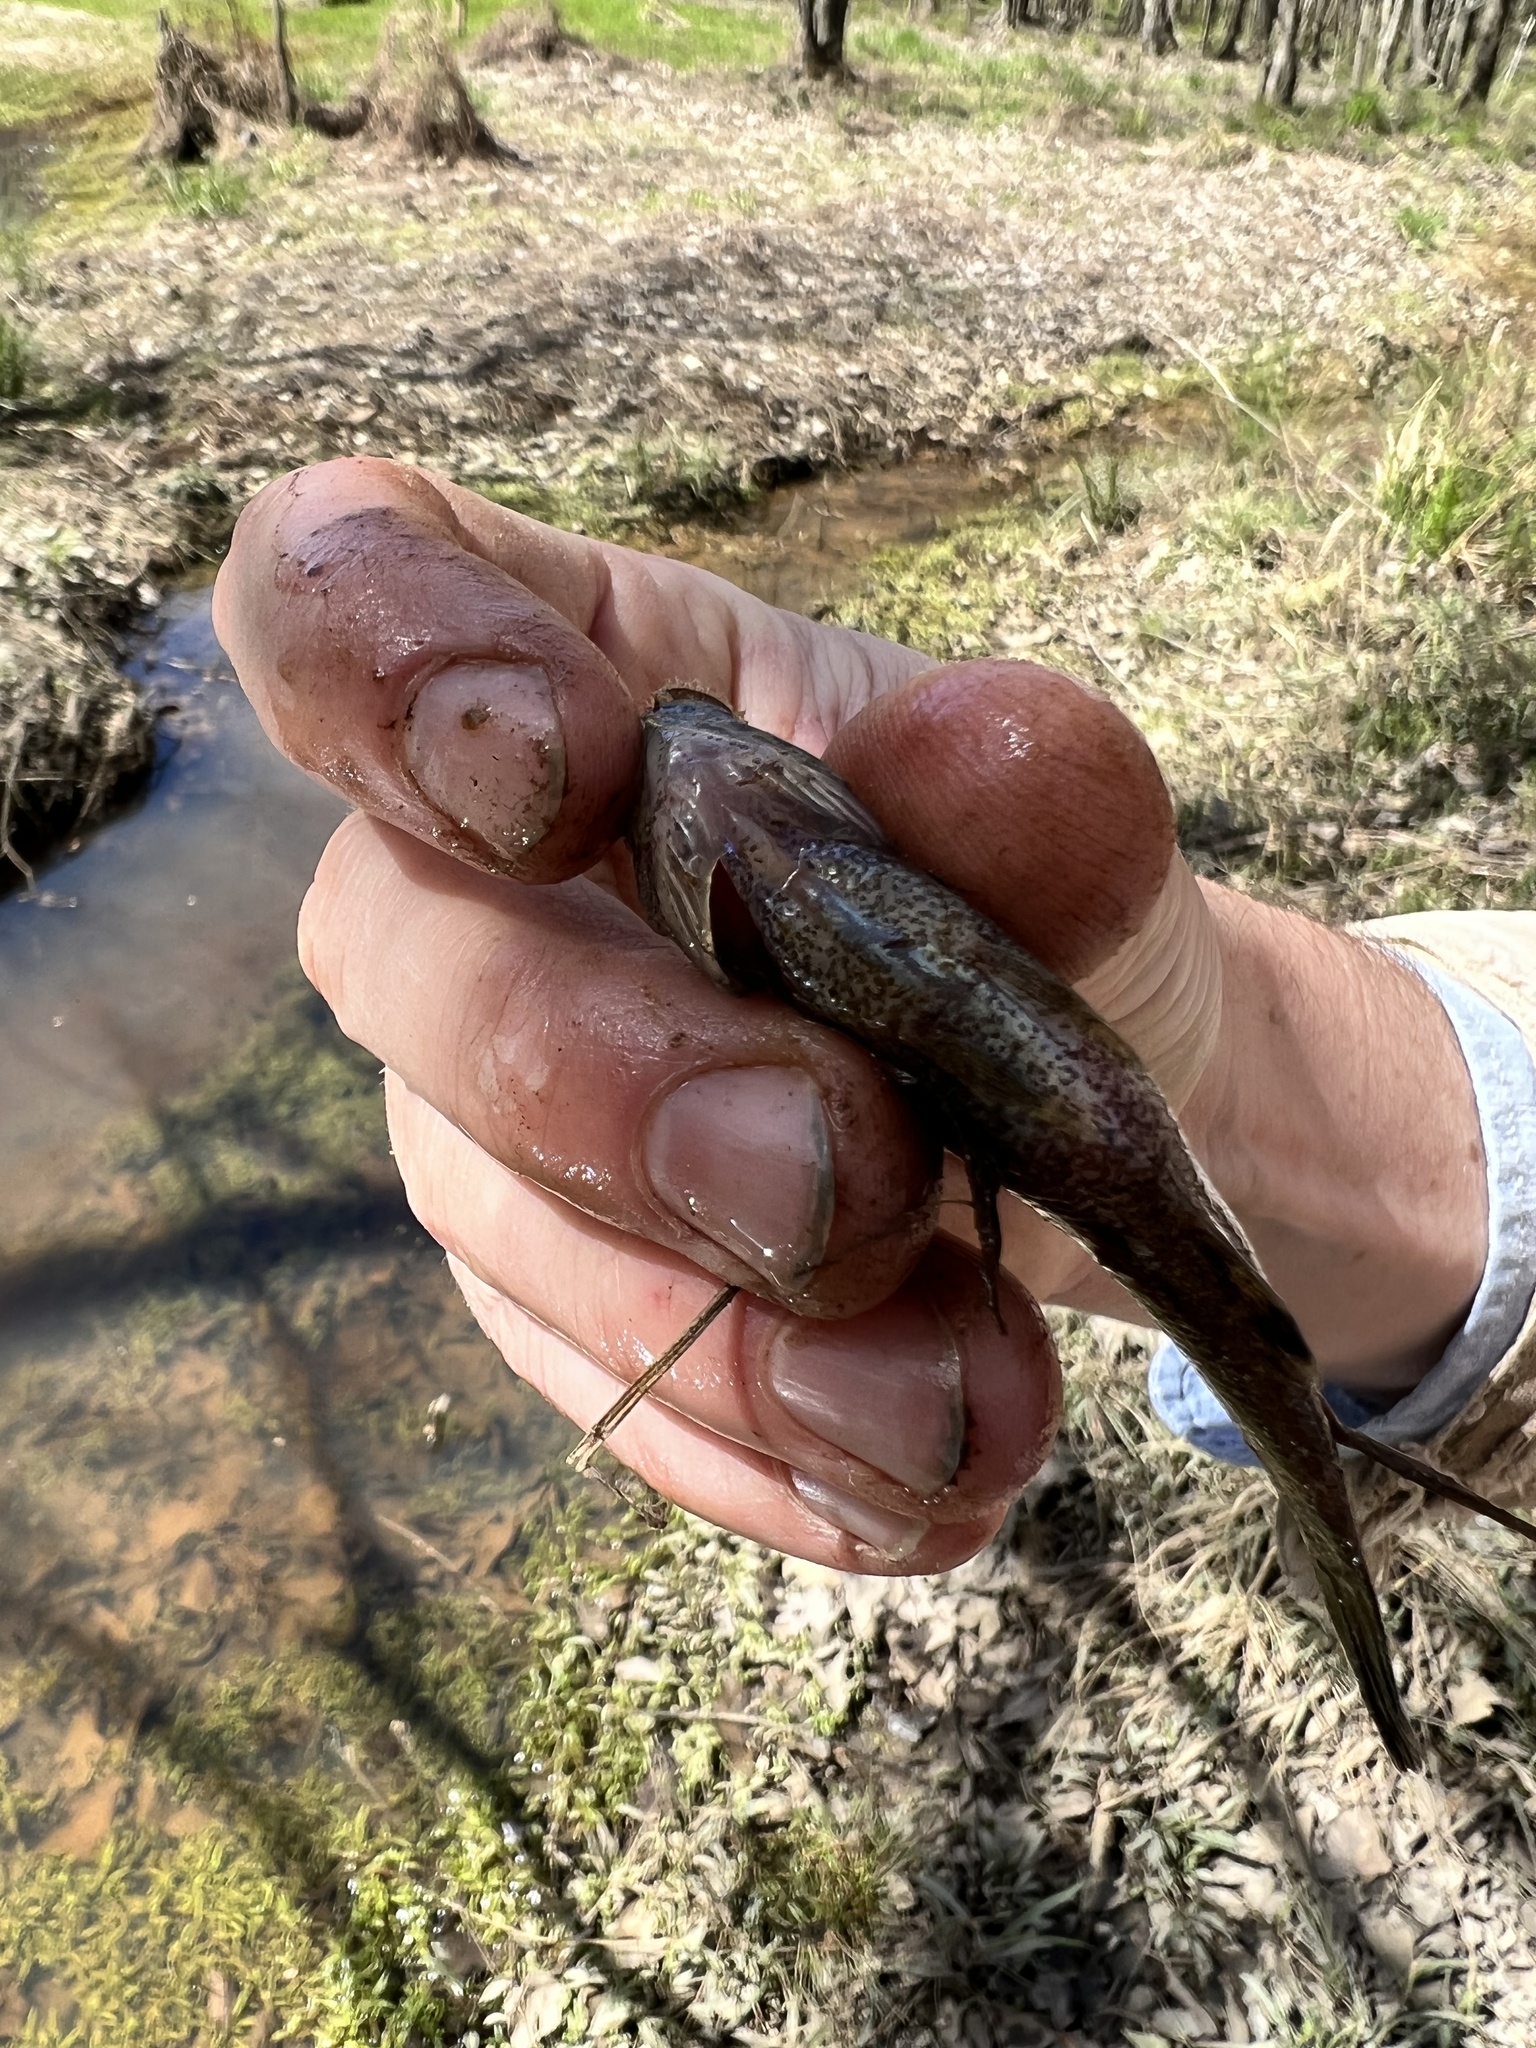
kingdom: Animalia
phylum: Chordata
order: Percopsiformes
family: Aphredoderidae
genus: Aphredoderus
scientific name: Aphredoderus
